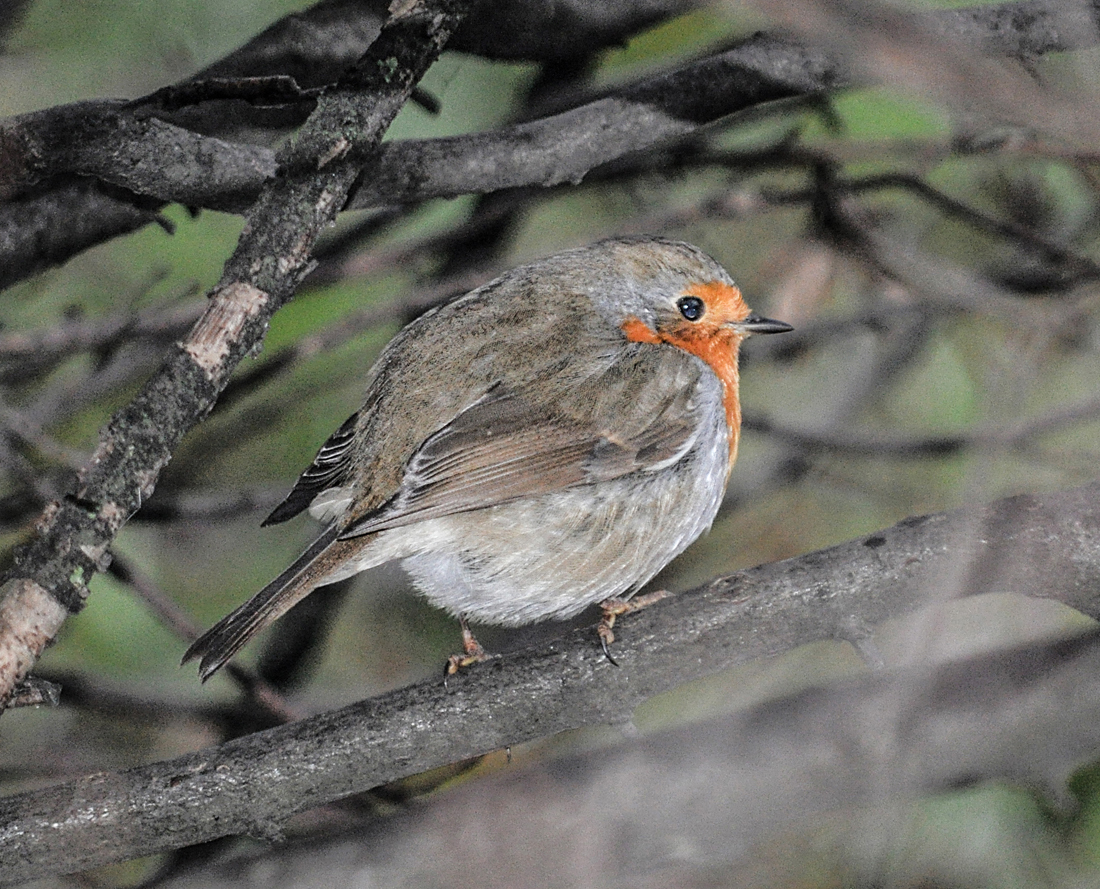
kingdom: Animalia
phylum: Chordata
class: Aves
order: Passeriformes
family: Muscicapidae
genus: Erithacus
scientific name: Erithacus rubecula
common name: European robin
